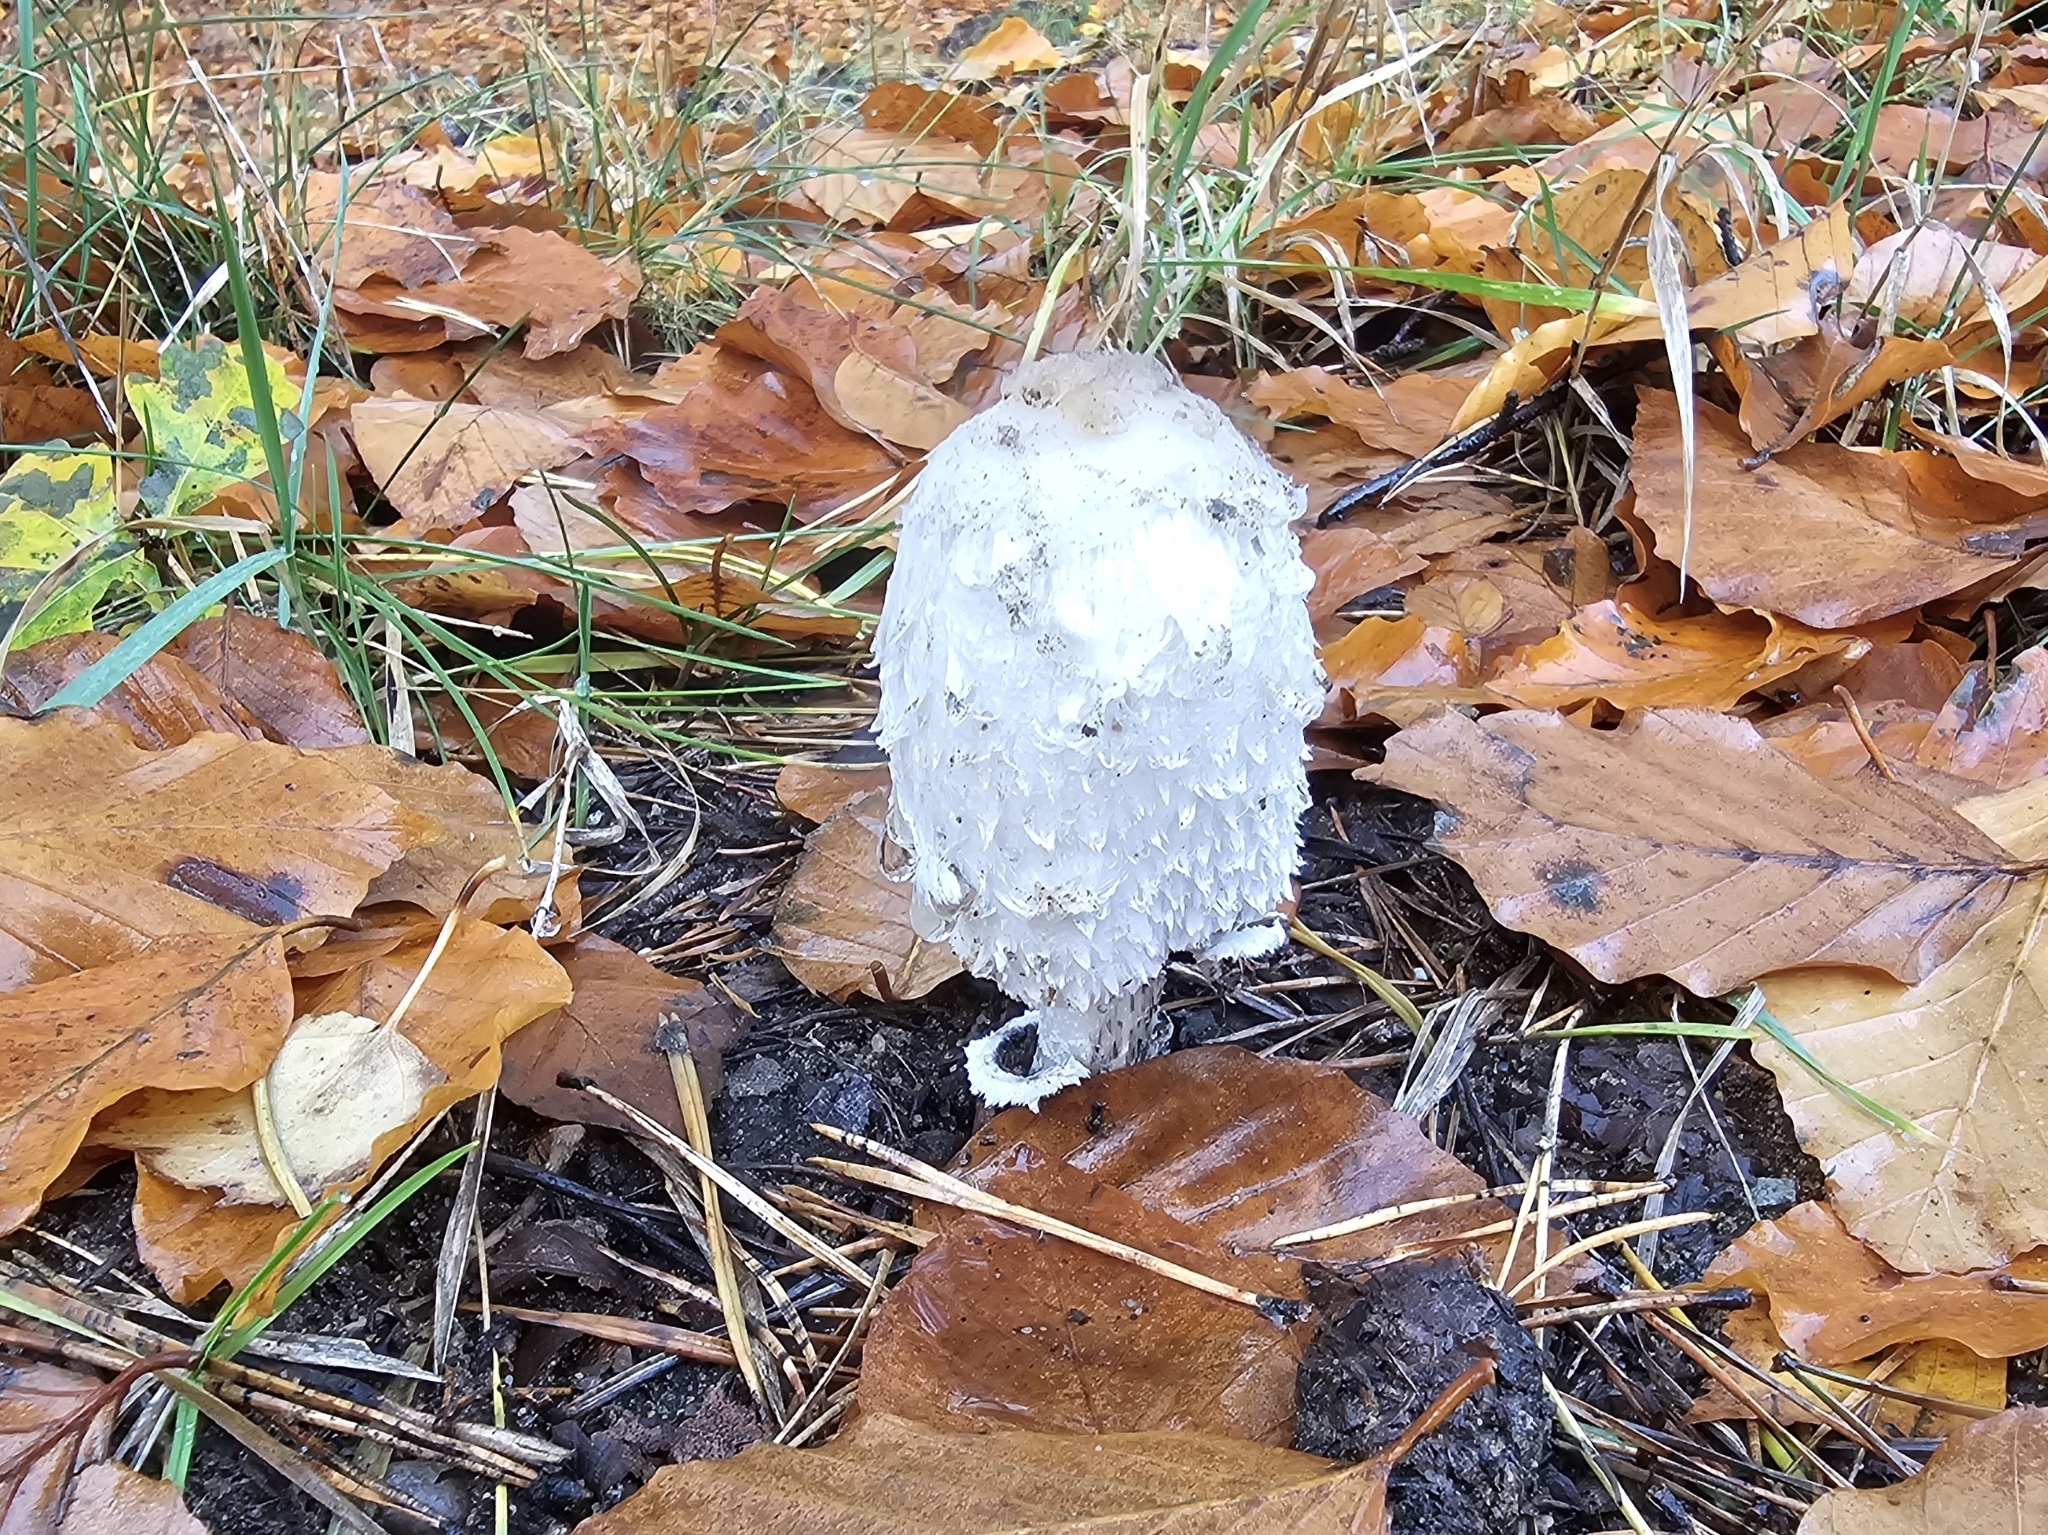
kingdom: Fungi
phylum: Basidiomycota
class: Agaricomycetes
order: Agaricales
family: Agaricaceae
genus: Coprinus
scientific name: Coprinus comatus
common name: Lawyer's wig
